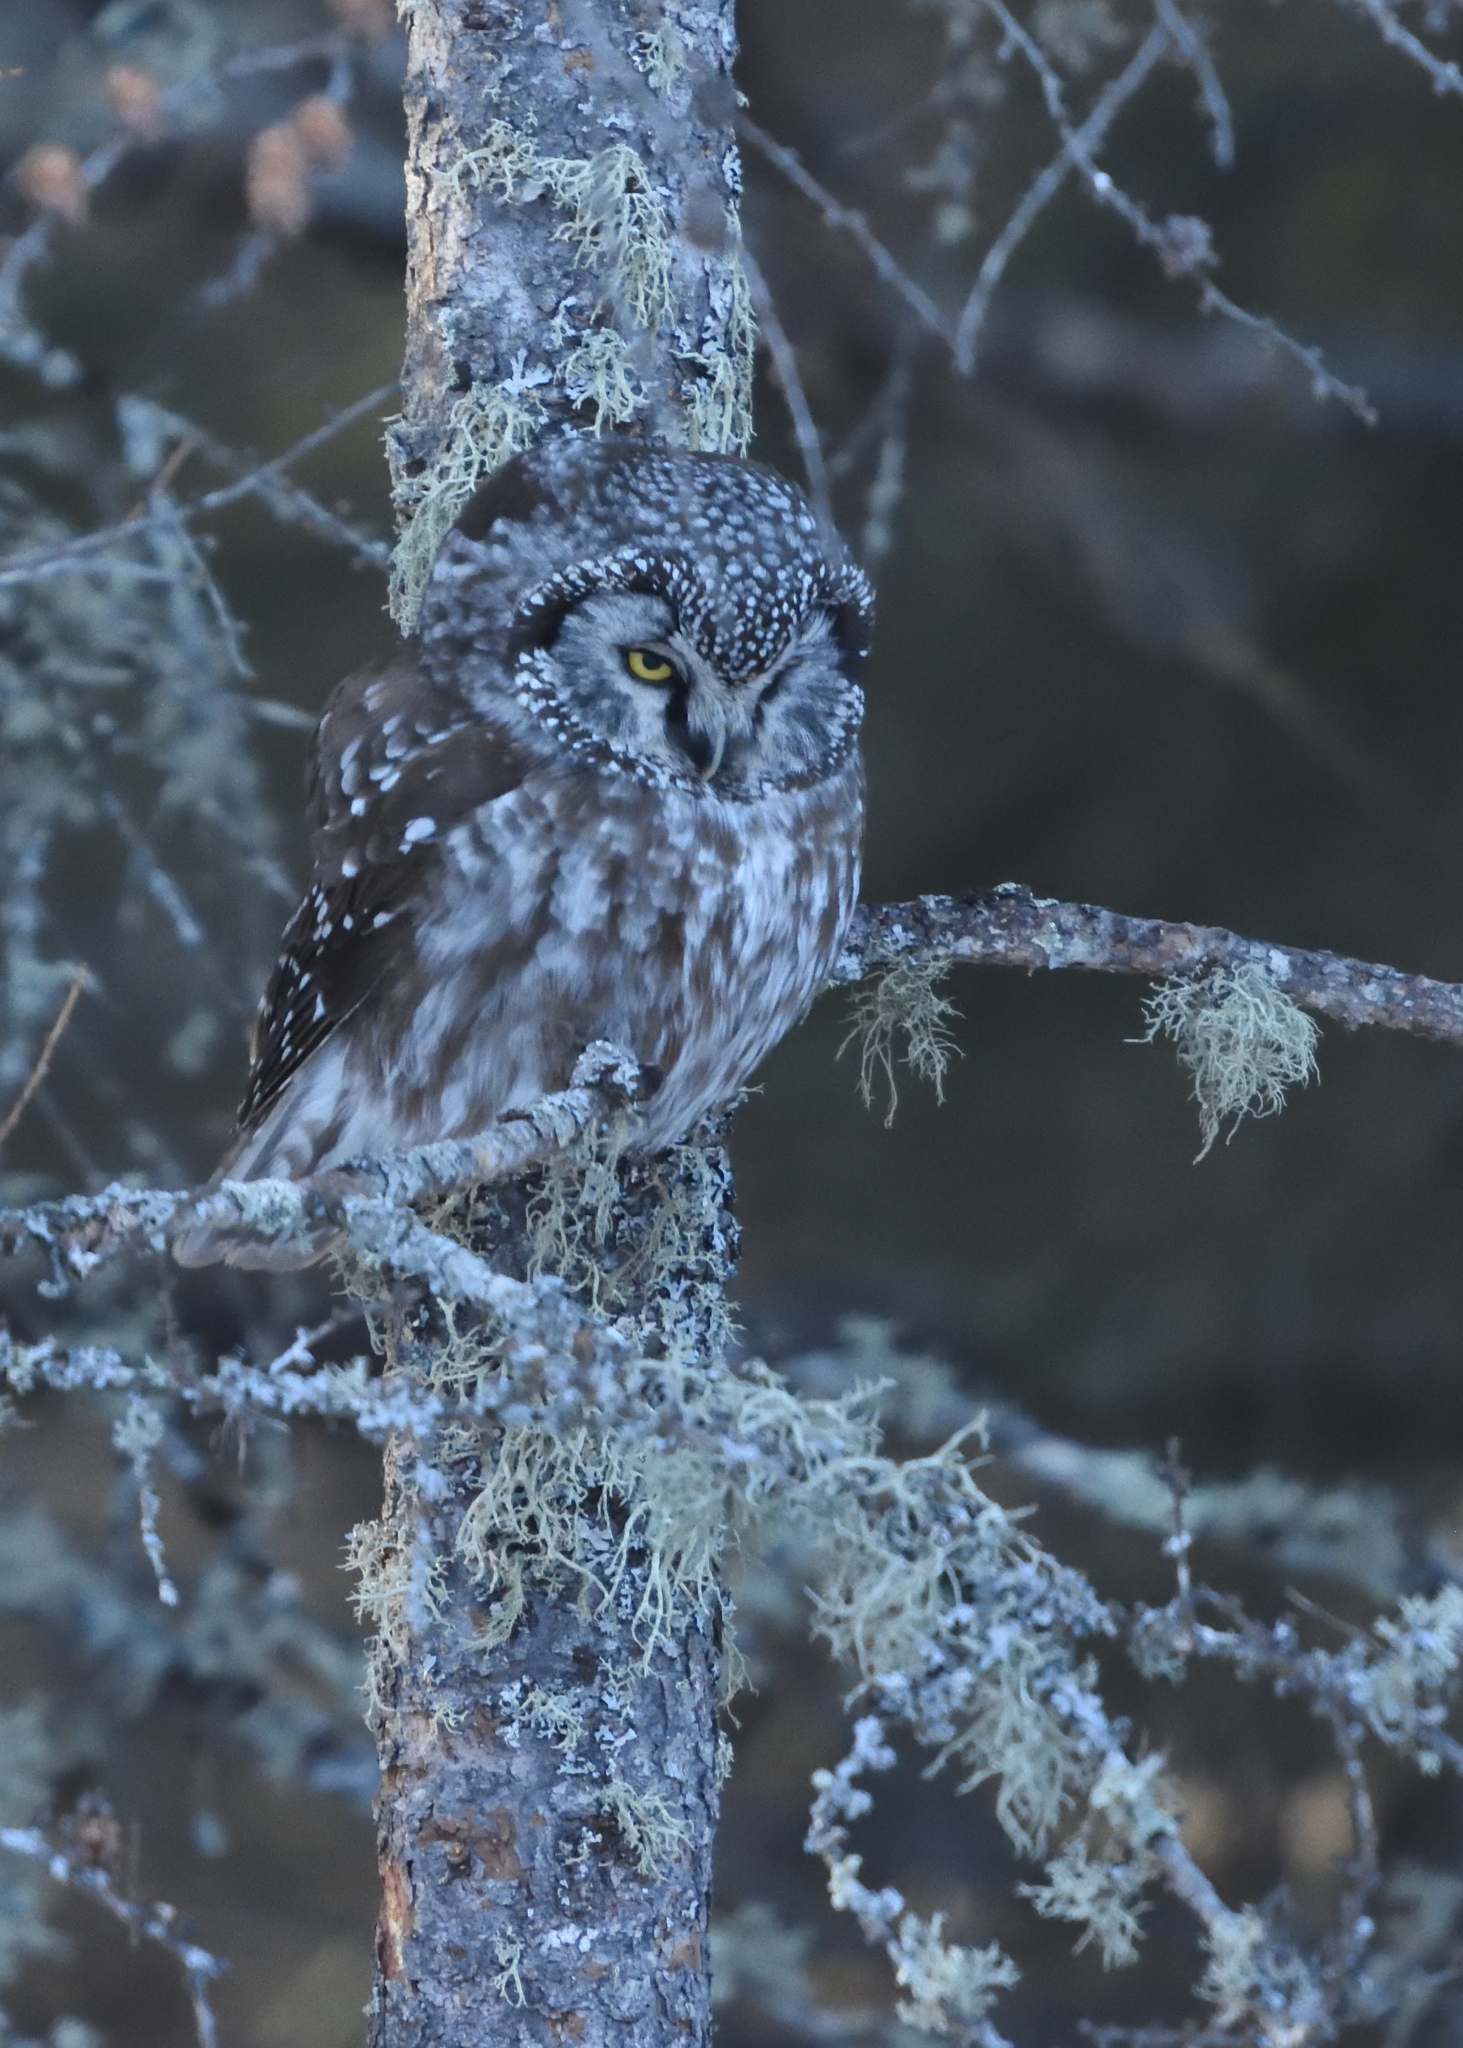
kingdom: Animalia
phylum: Chordata
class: Aves
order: Strigiformes
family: Strigidae
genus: Aegolius
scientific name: Aegolius funereus
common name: Boreal owl
